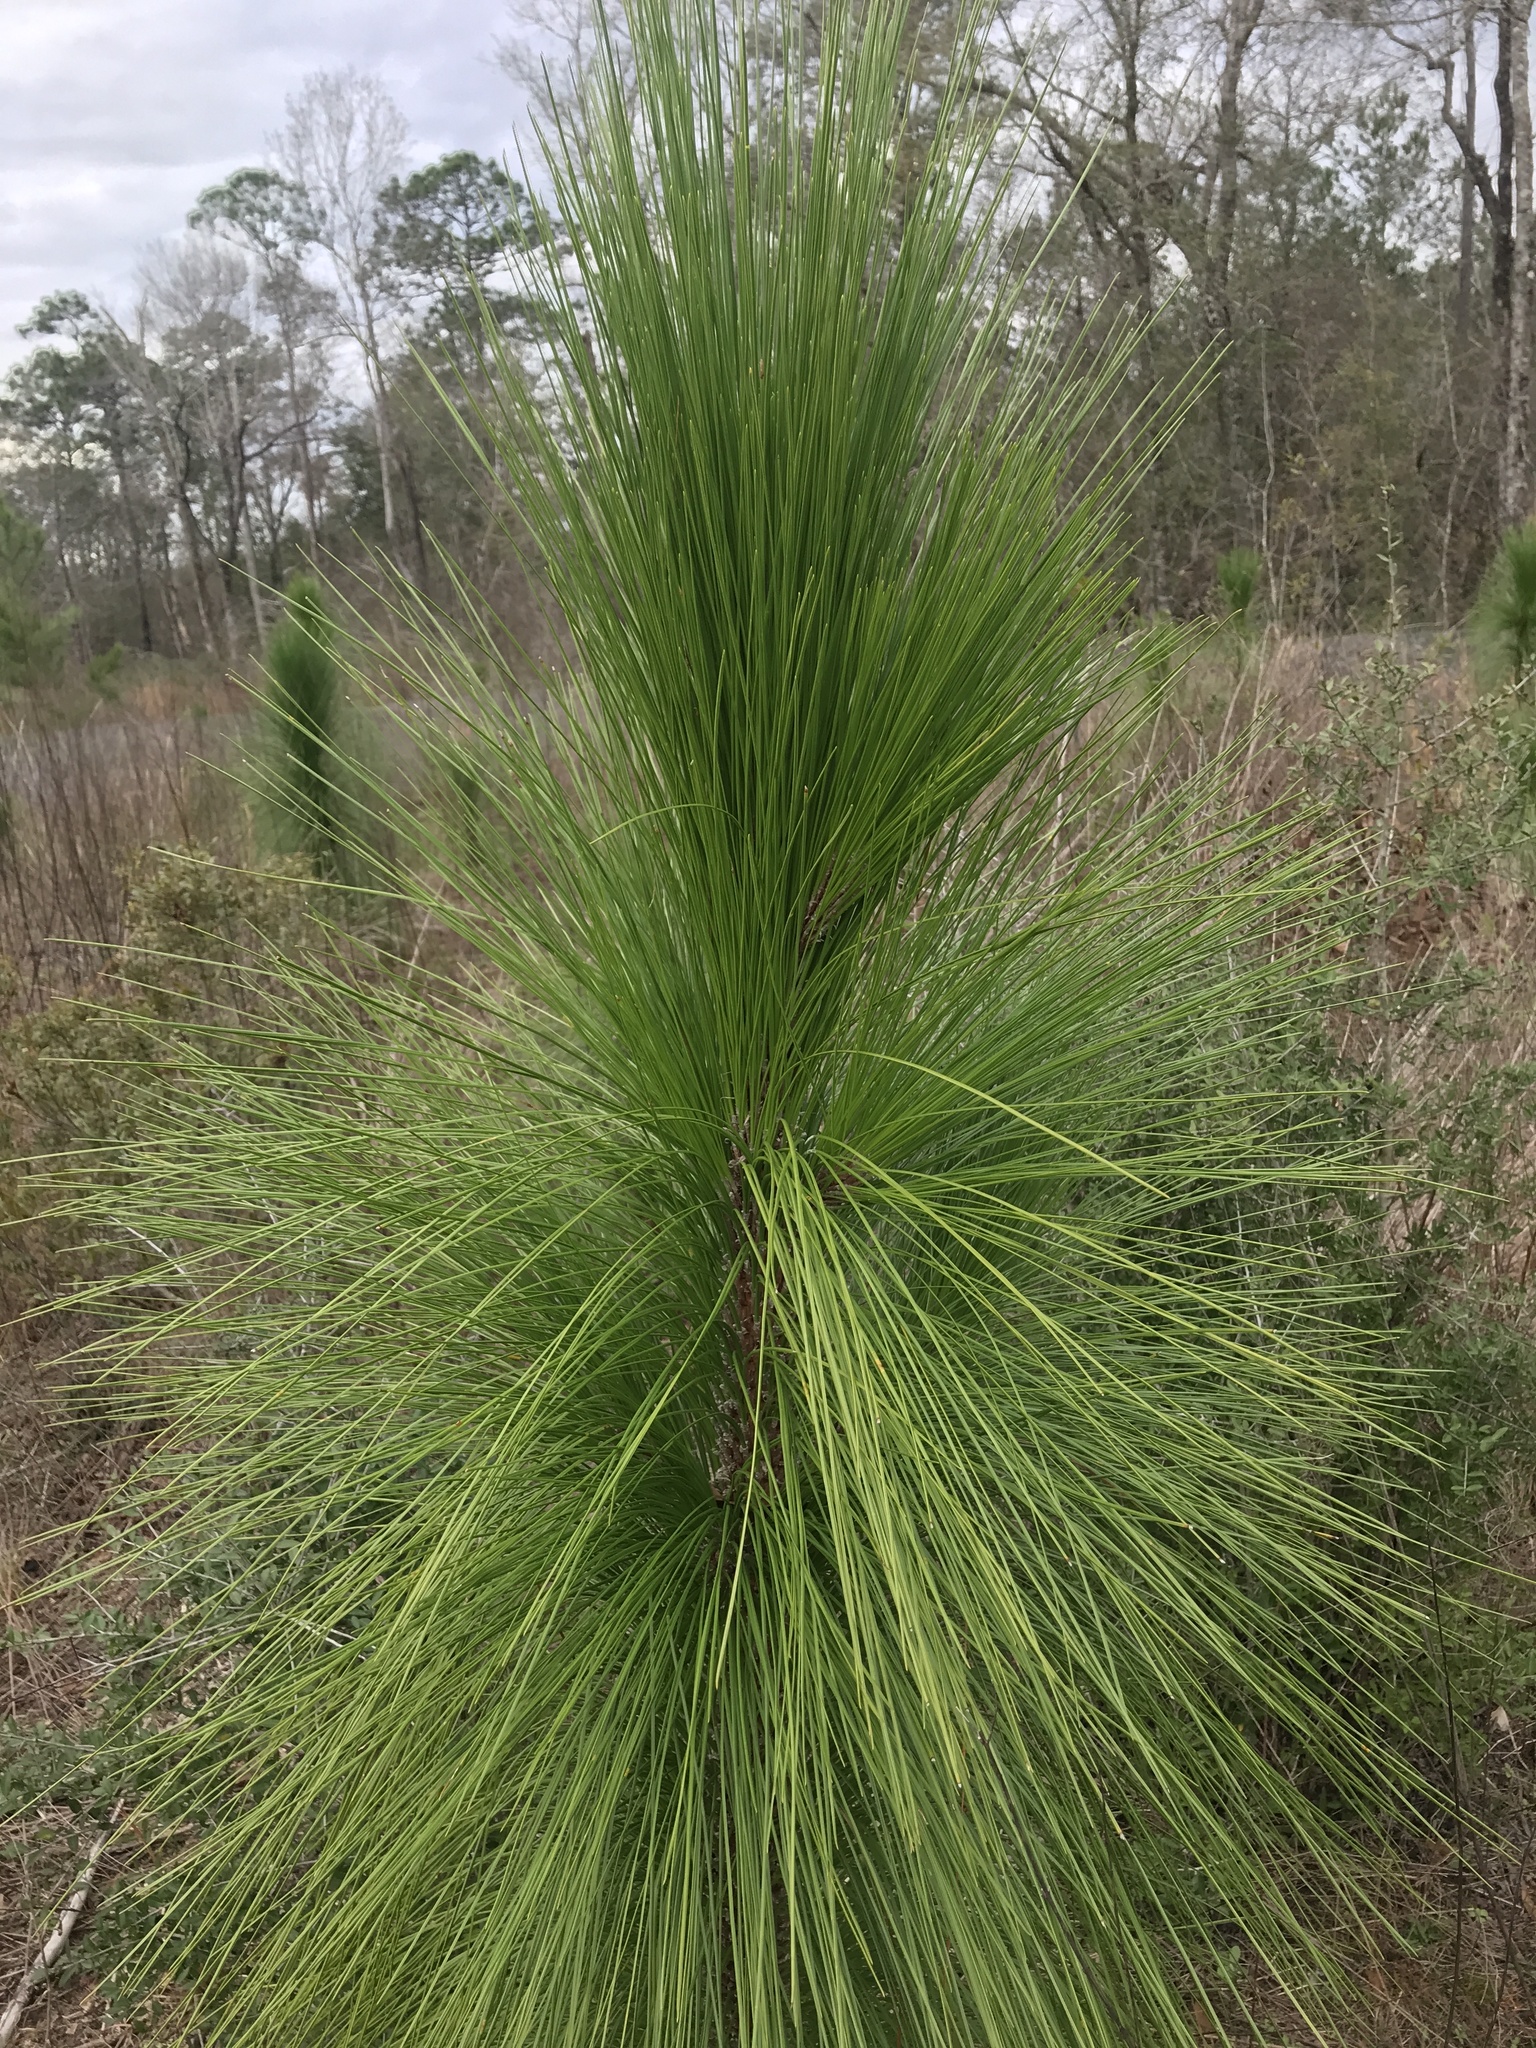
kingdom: Plantae
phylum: Tracheophyta
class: Pinopsida
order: Pinales
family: Pinaceae
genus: Pinus
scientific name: Pinus palustris
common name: Longleaf pine
